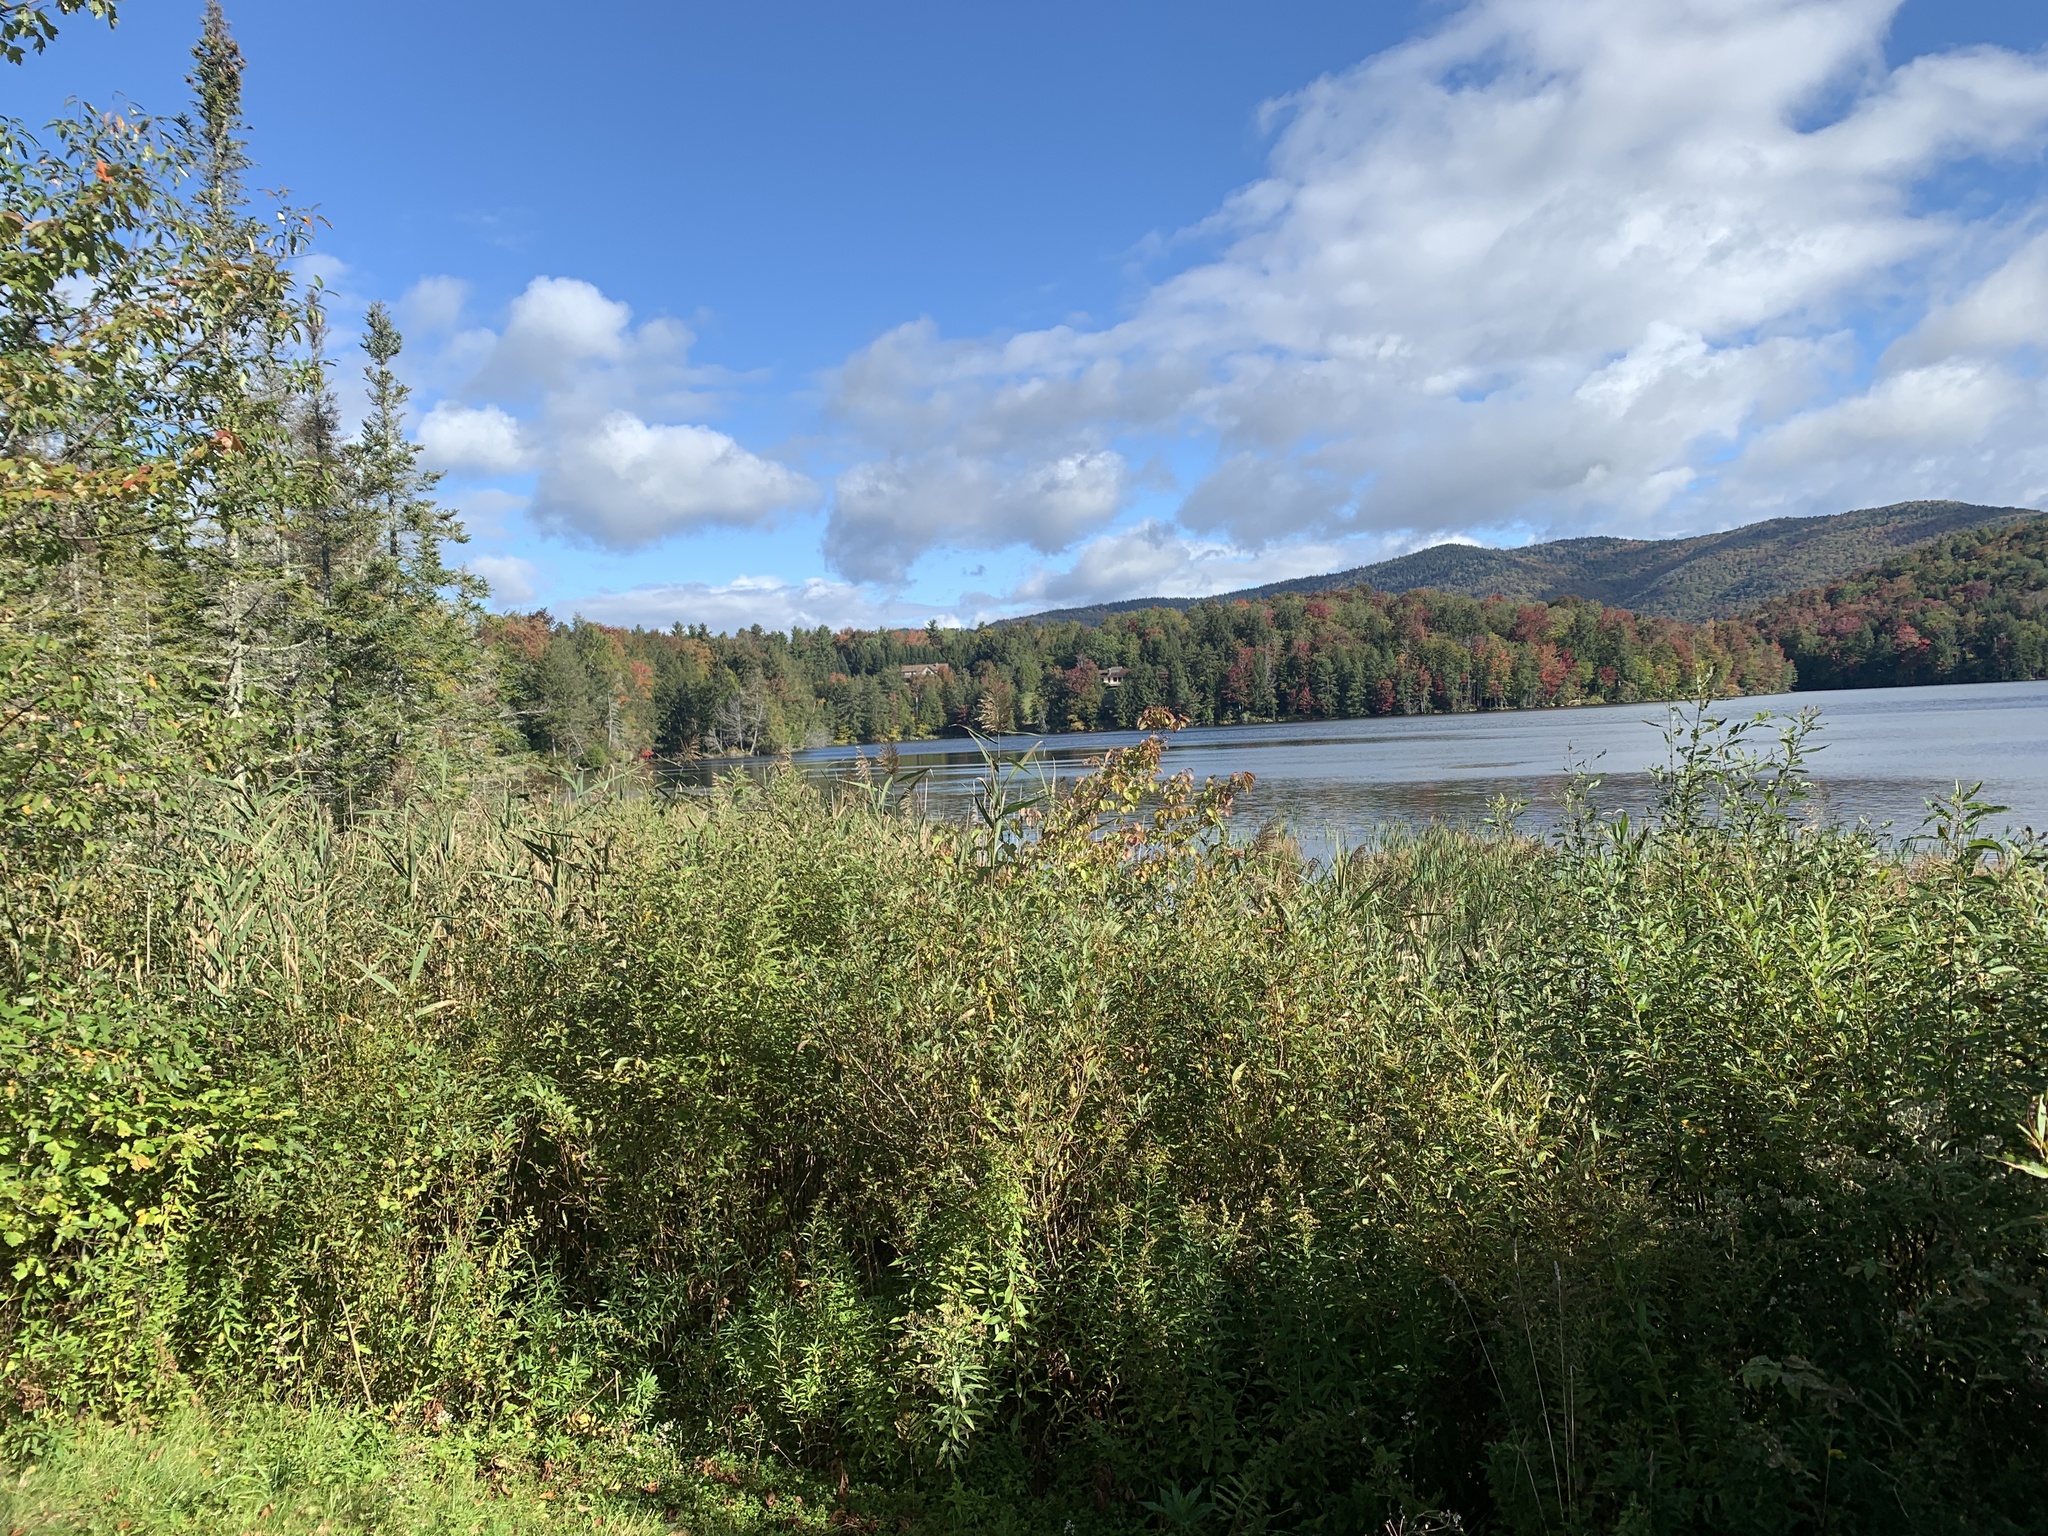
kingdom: Plantae
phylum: Tracheophyta
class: Liliopsida
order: Poales
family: Poaceae
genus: Phragmites
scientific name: Phragmites australis
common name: Common reed
